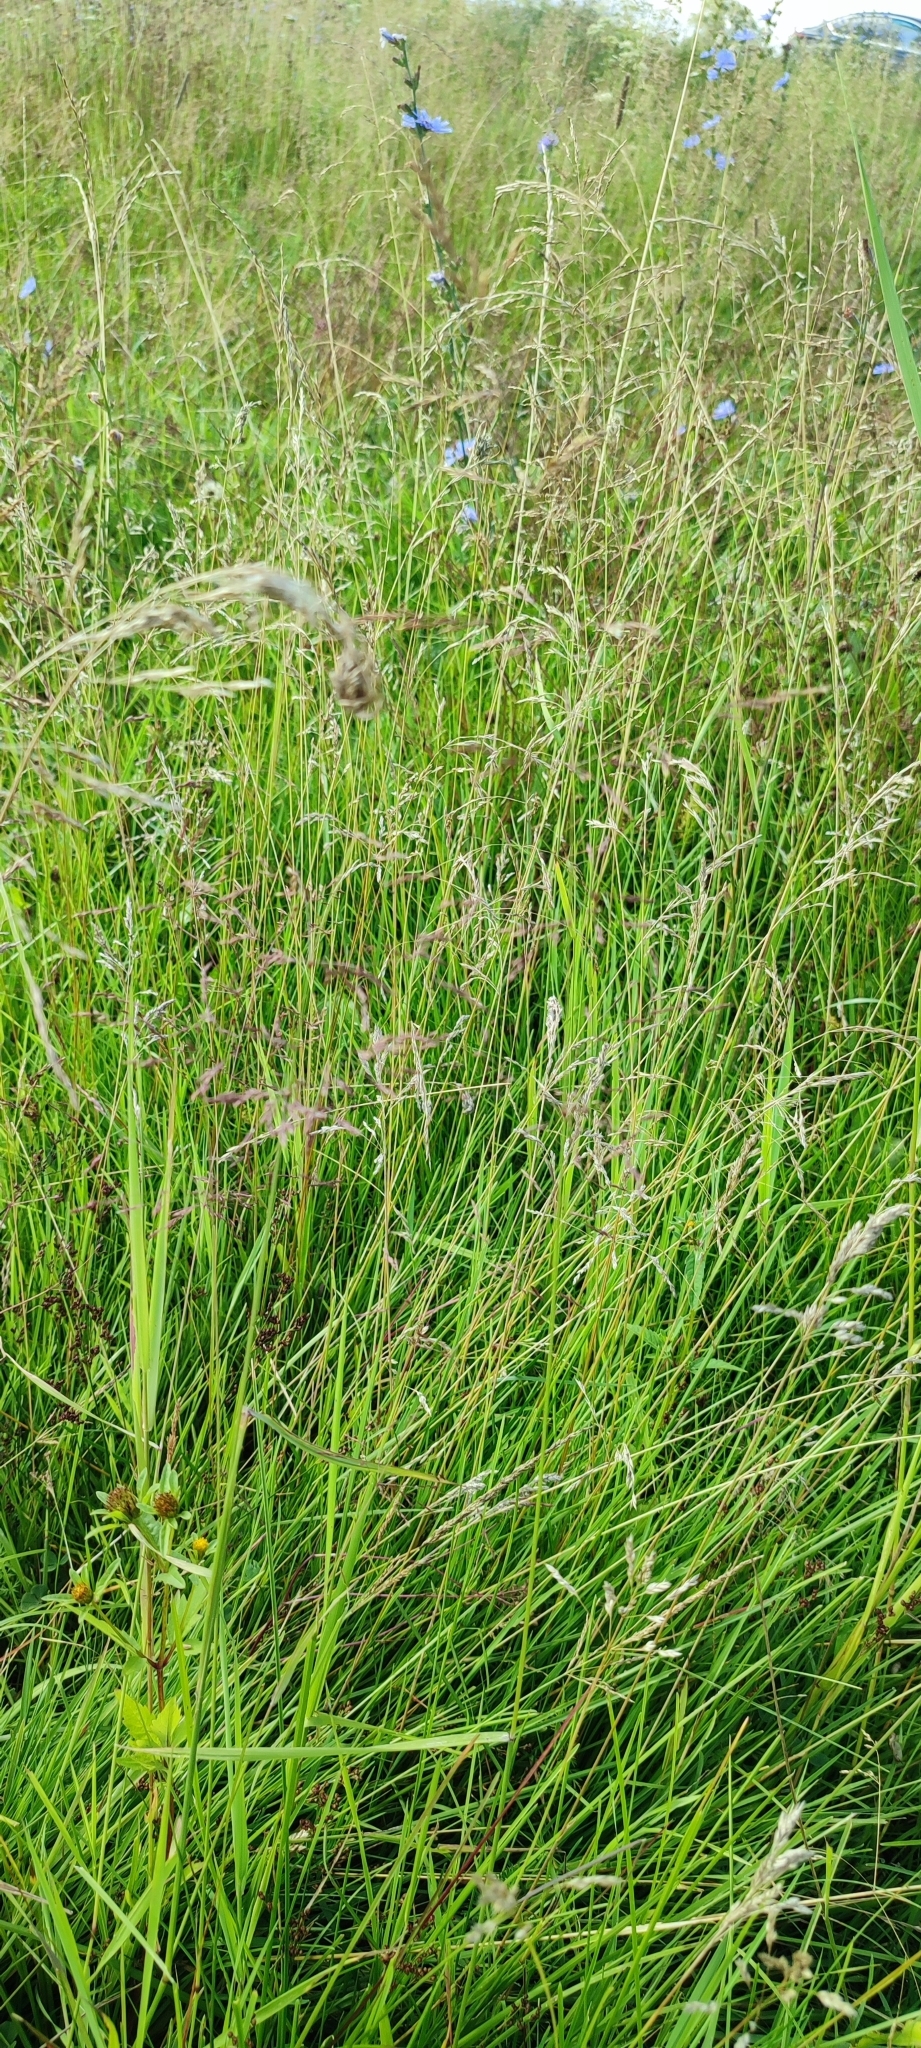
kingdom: Plantae
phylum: Tracheophyta
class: Liliopsida
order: Poales
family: Poaceae
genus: Agrostis
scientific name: Agrostis gigantea
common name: Black bent
